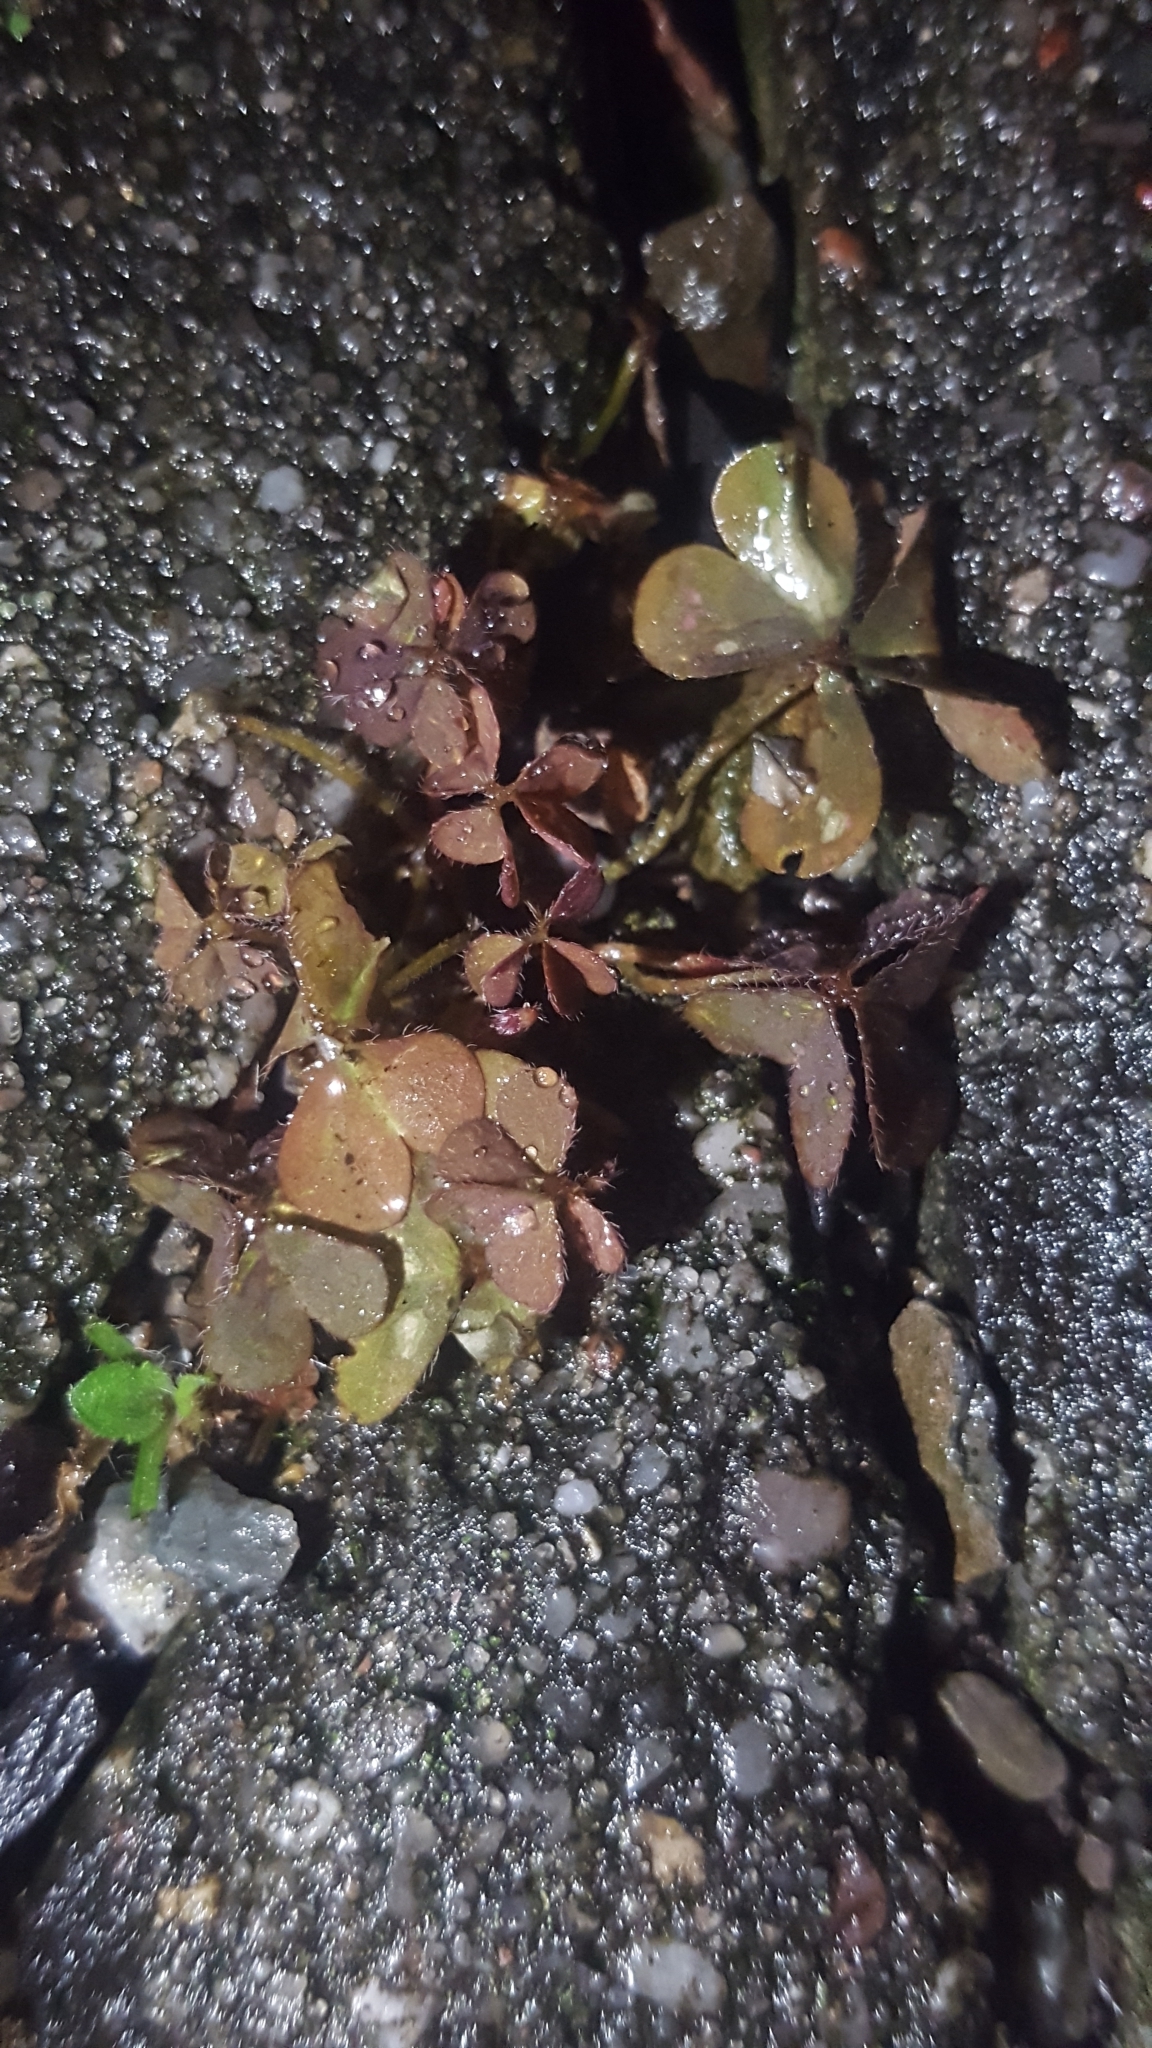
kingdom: Plantae
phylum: Tracheophyta
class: Magnoliopsida
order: Oxalidales
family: Oxalidaceae
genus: Oxalis
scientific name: Oxalis corniculata
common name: Procumbent yellow-sorrel
